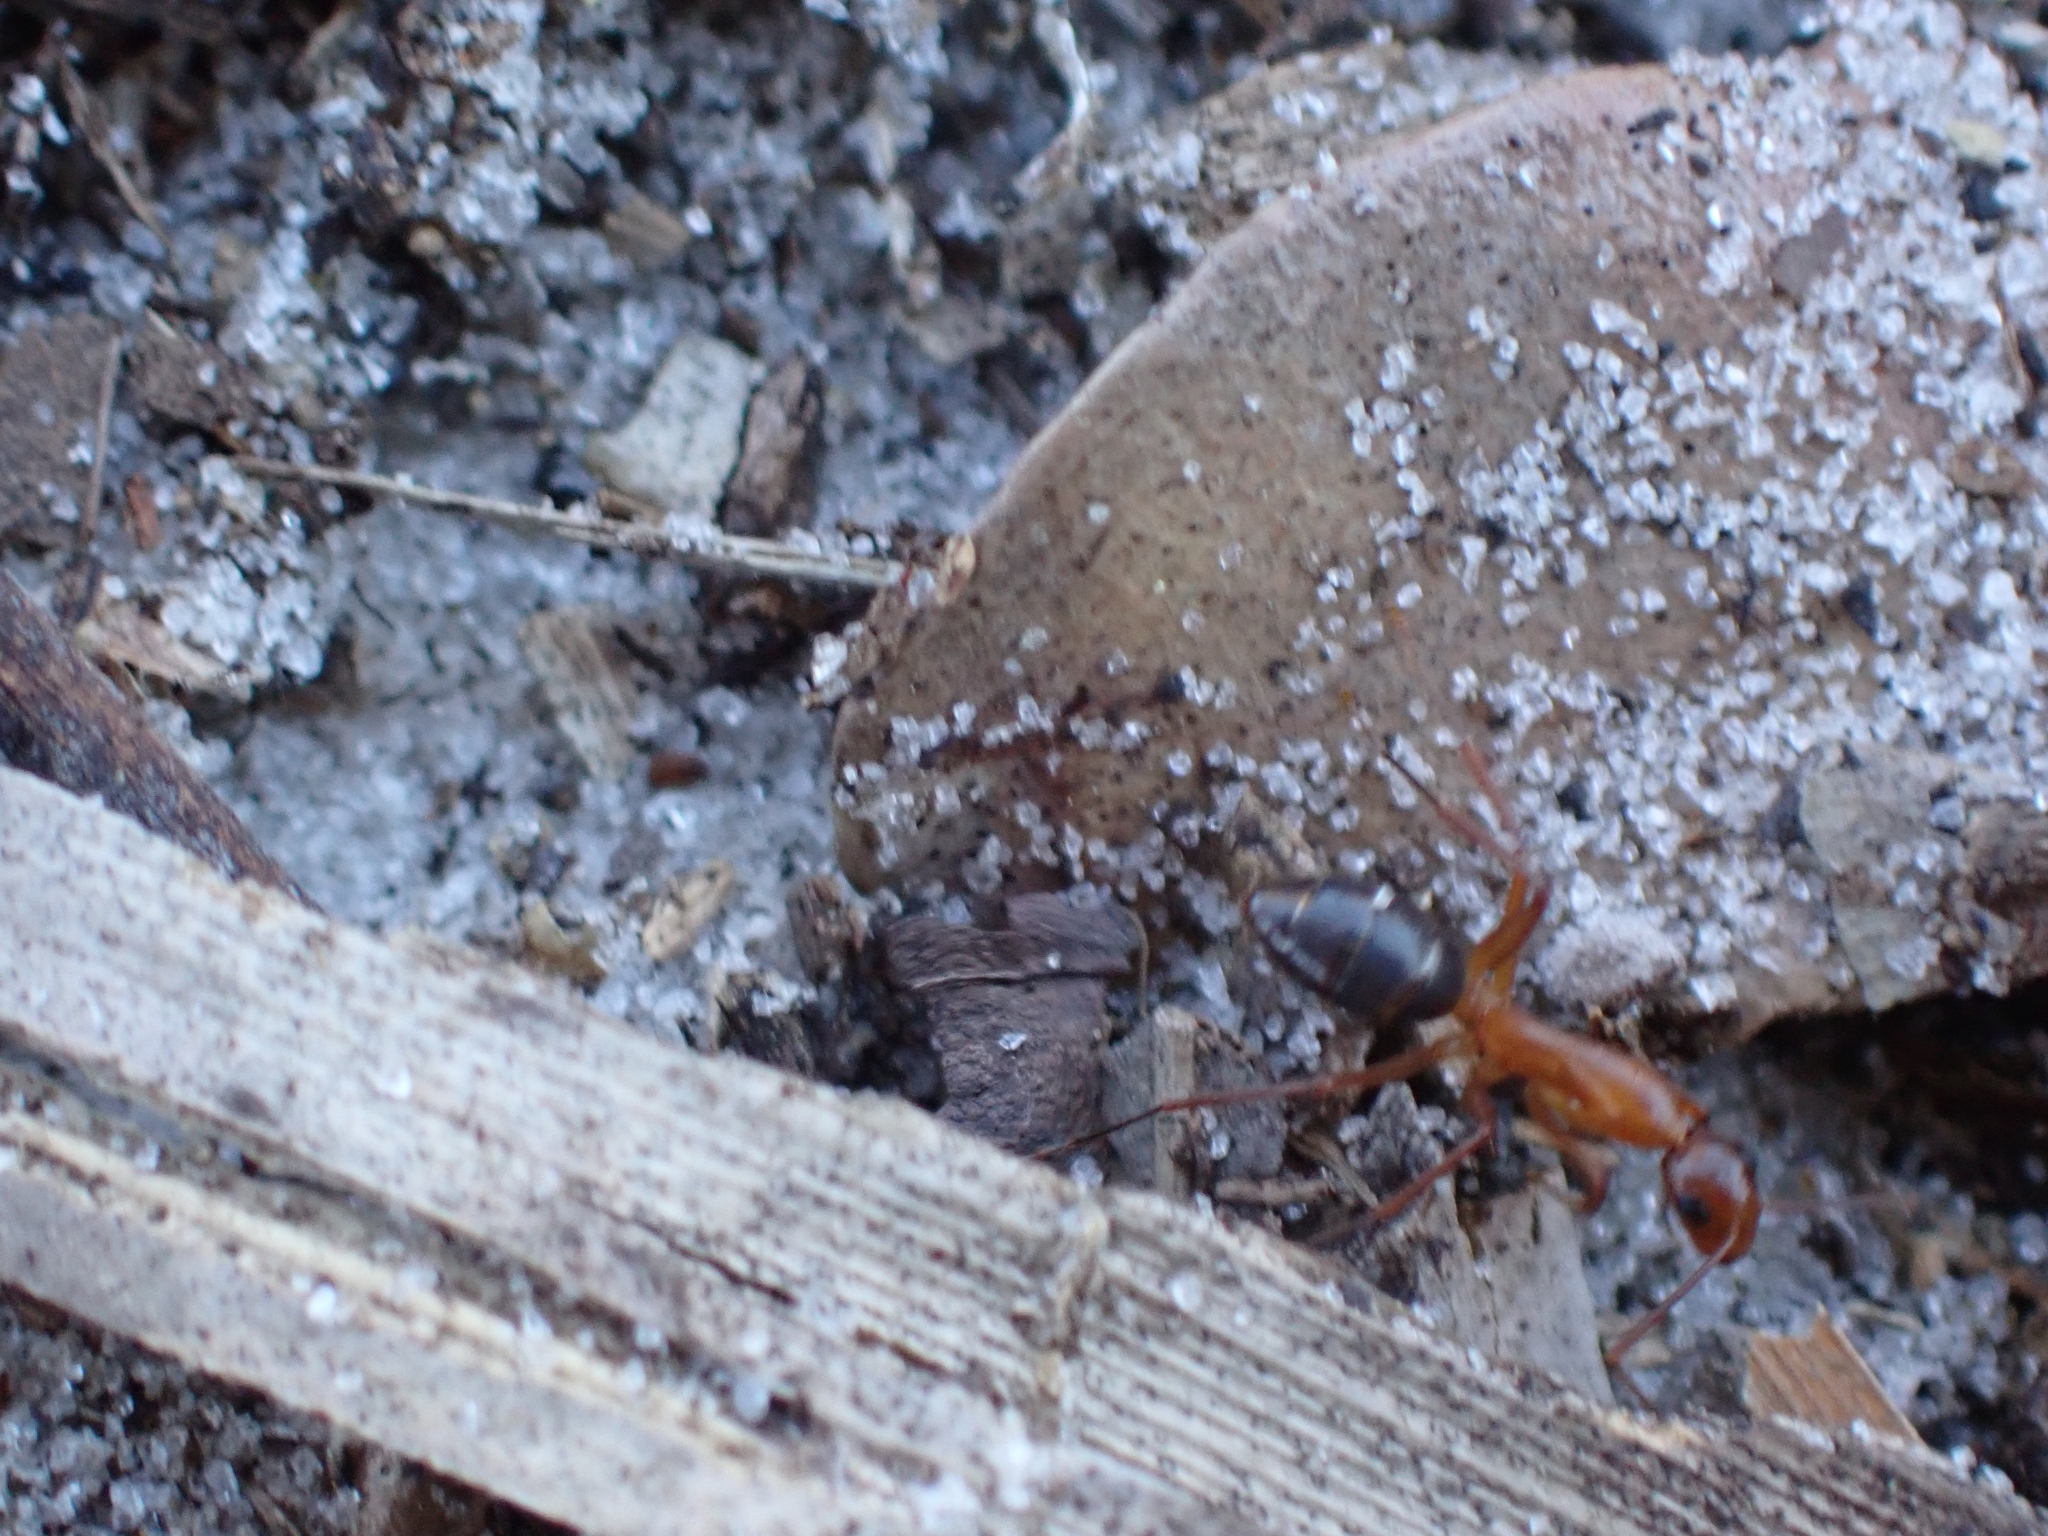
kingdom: Animalia
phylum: Arthropoda
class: Insecta
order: Hymenoptera
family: Formicidae
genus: Camponotus
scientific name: Camponotus inaequalis
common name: Ant
